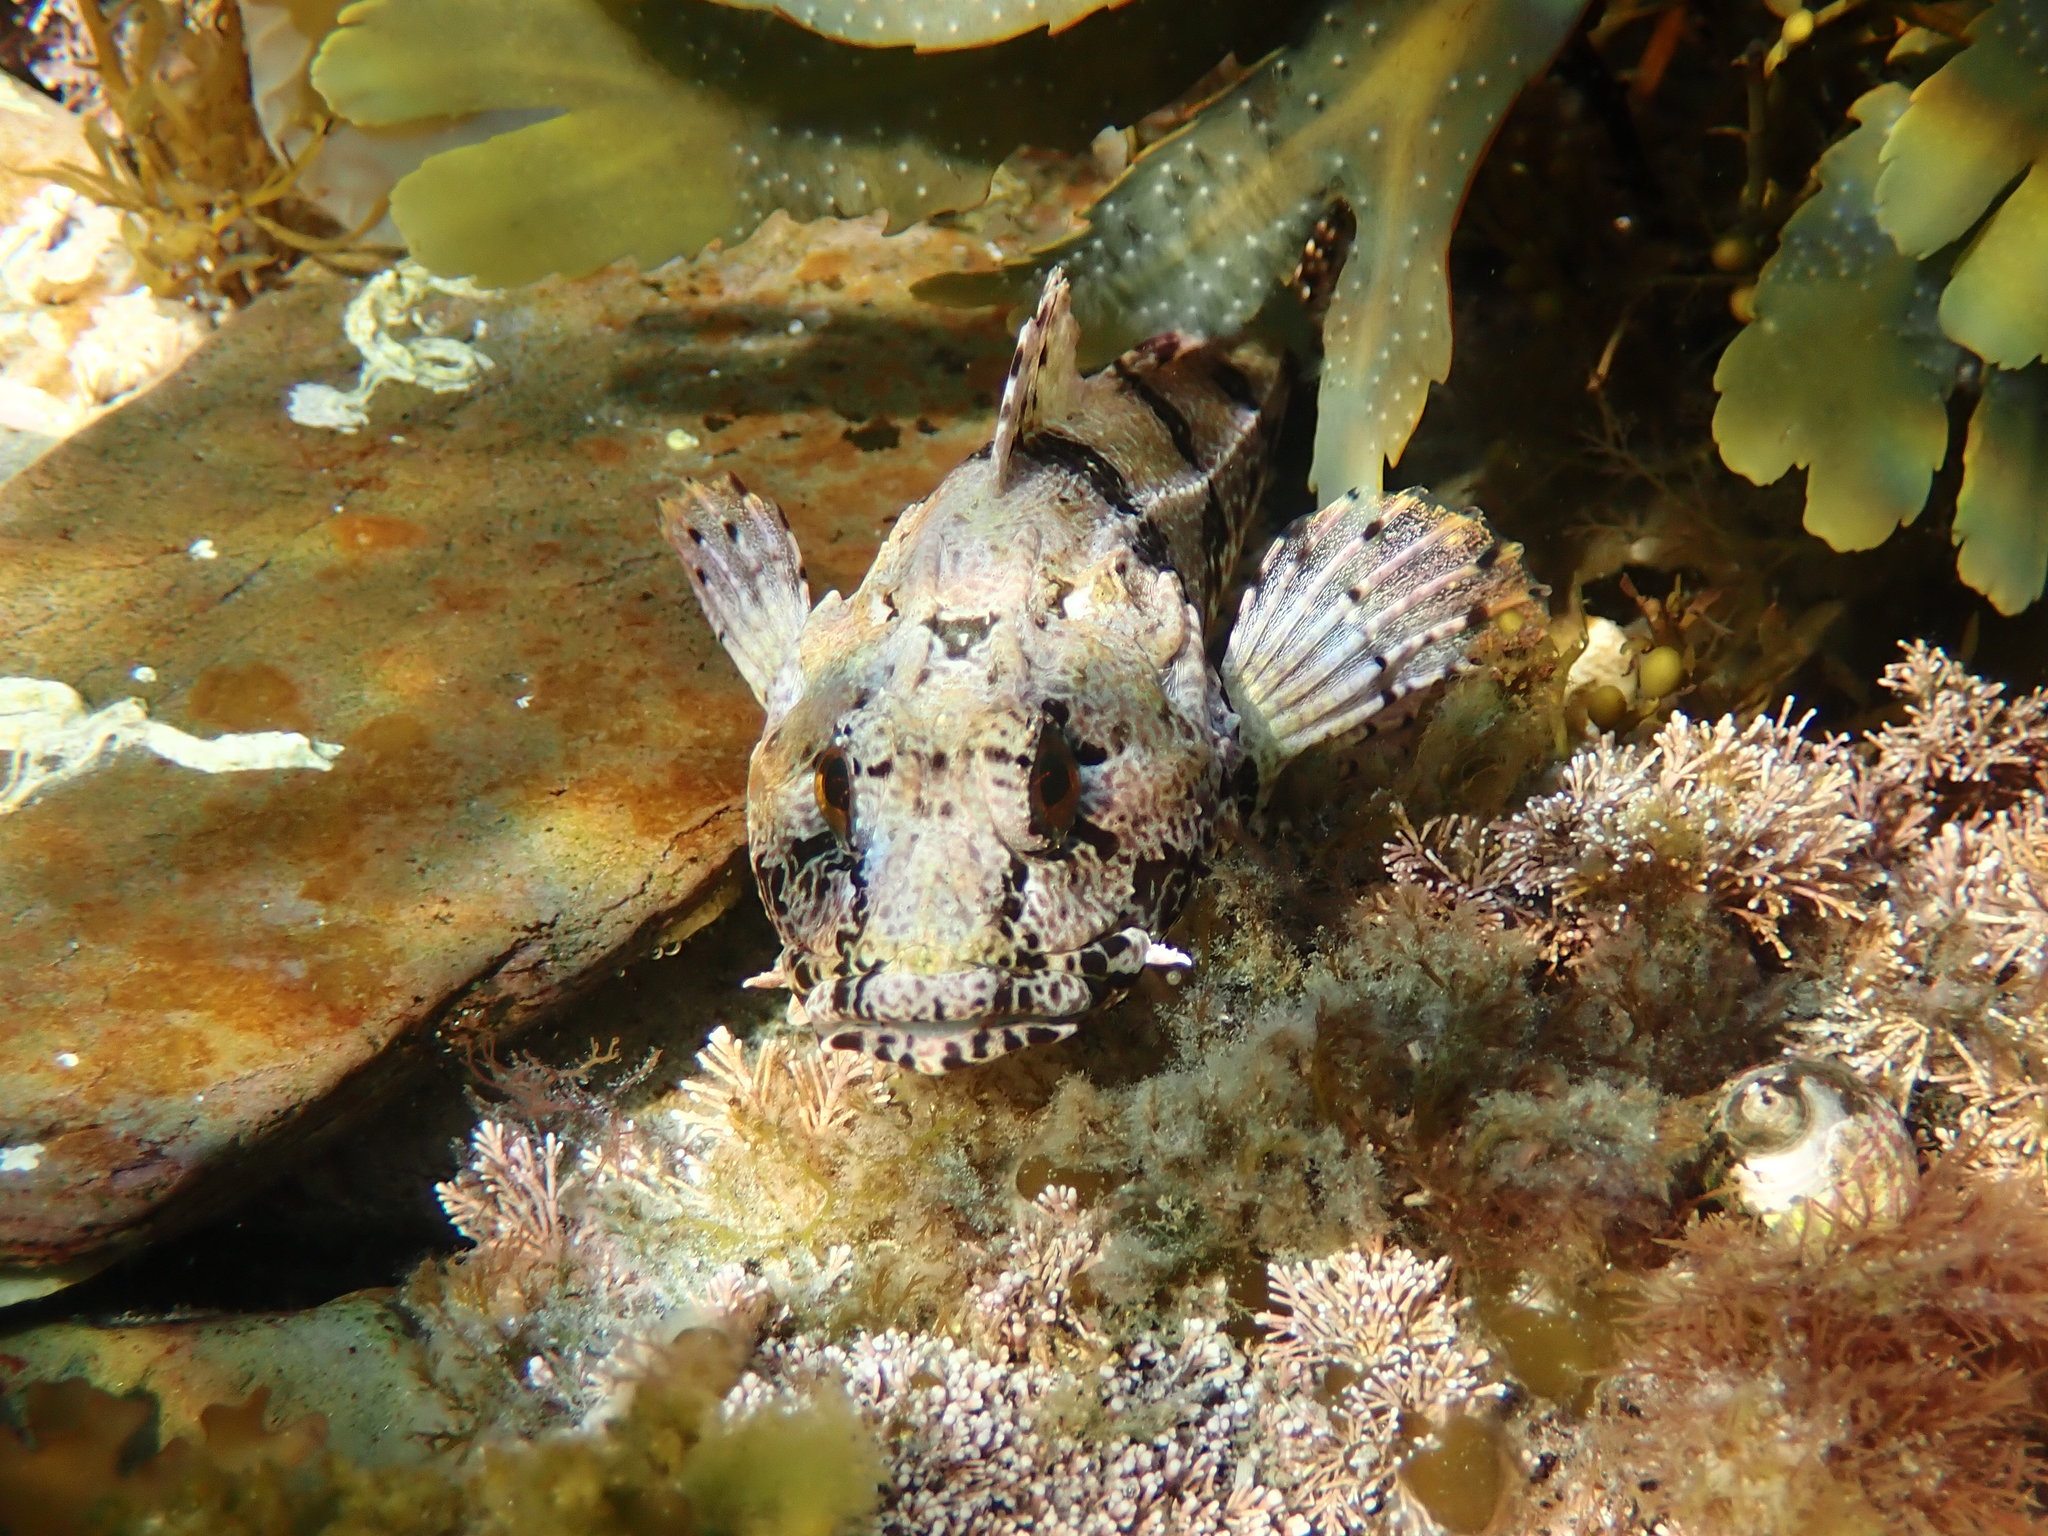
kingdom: Animalia
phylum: Chordata
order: Scorpaeniformes
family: Cottidae
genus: Taurulus
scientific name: Taurulus bubalis
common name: Sea scorpion
